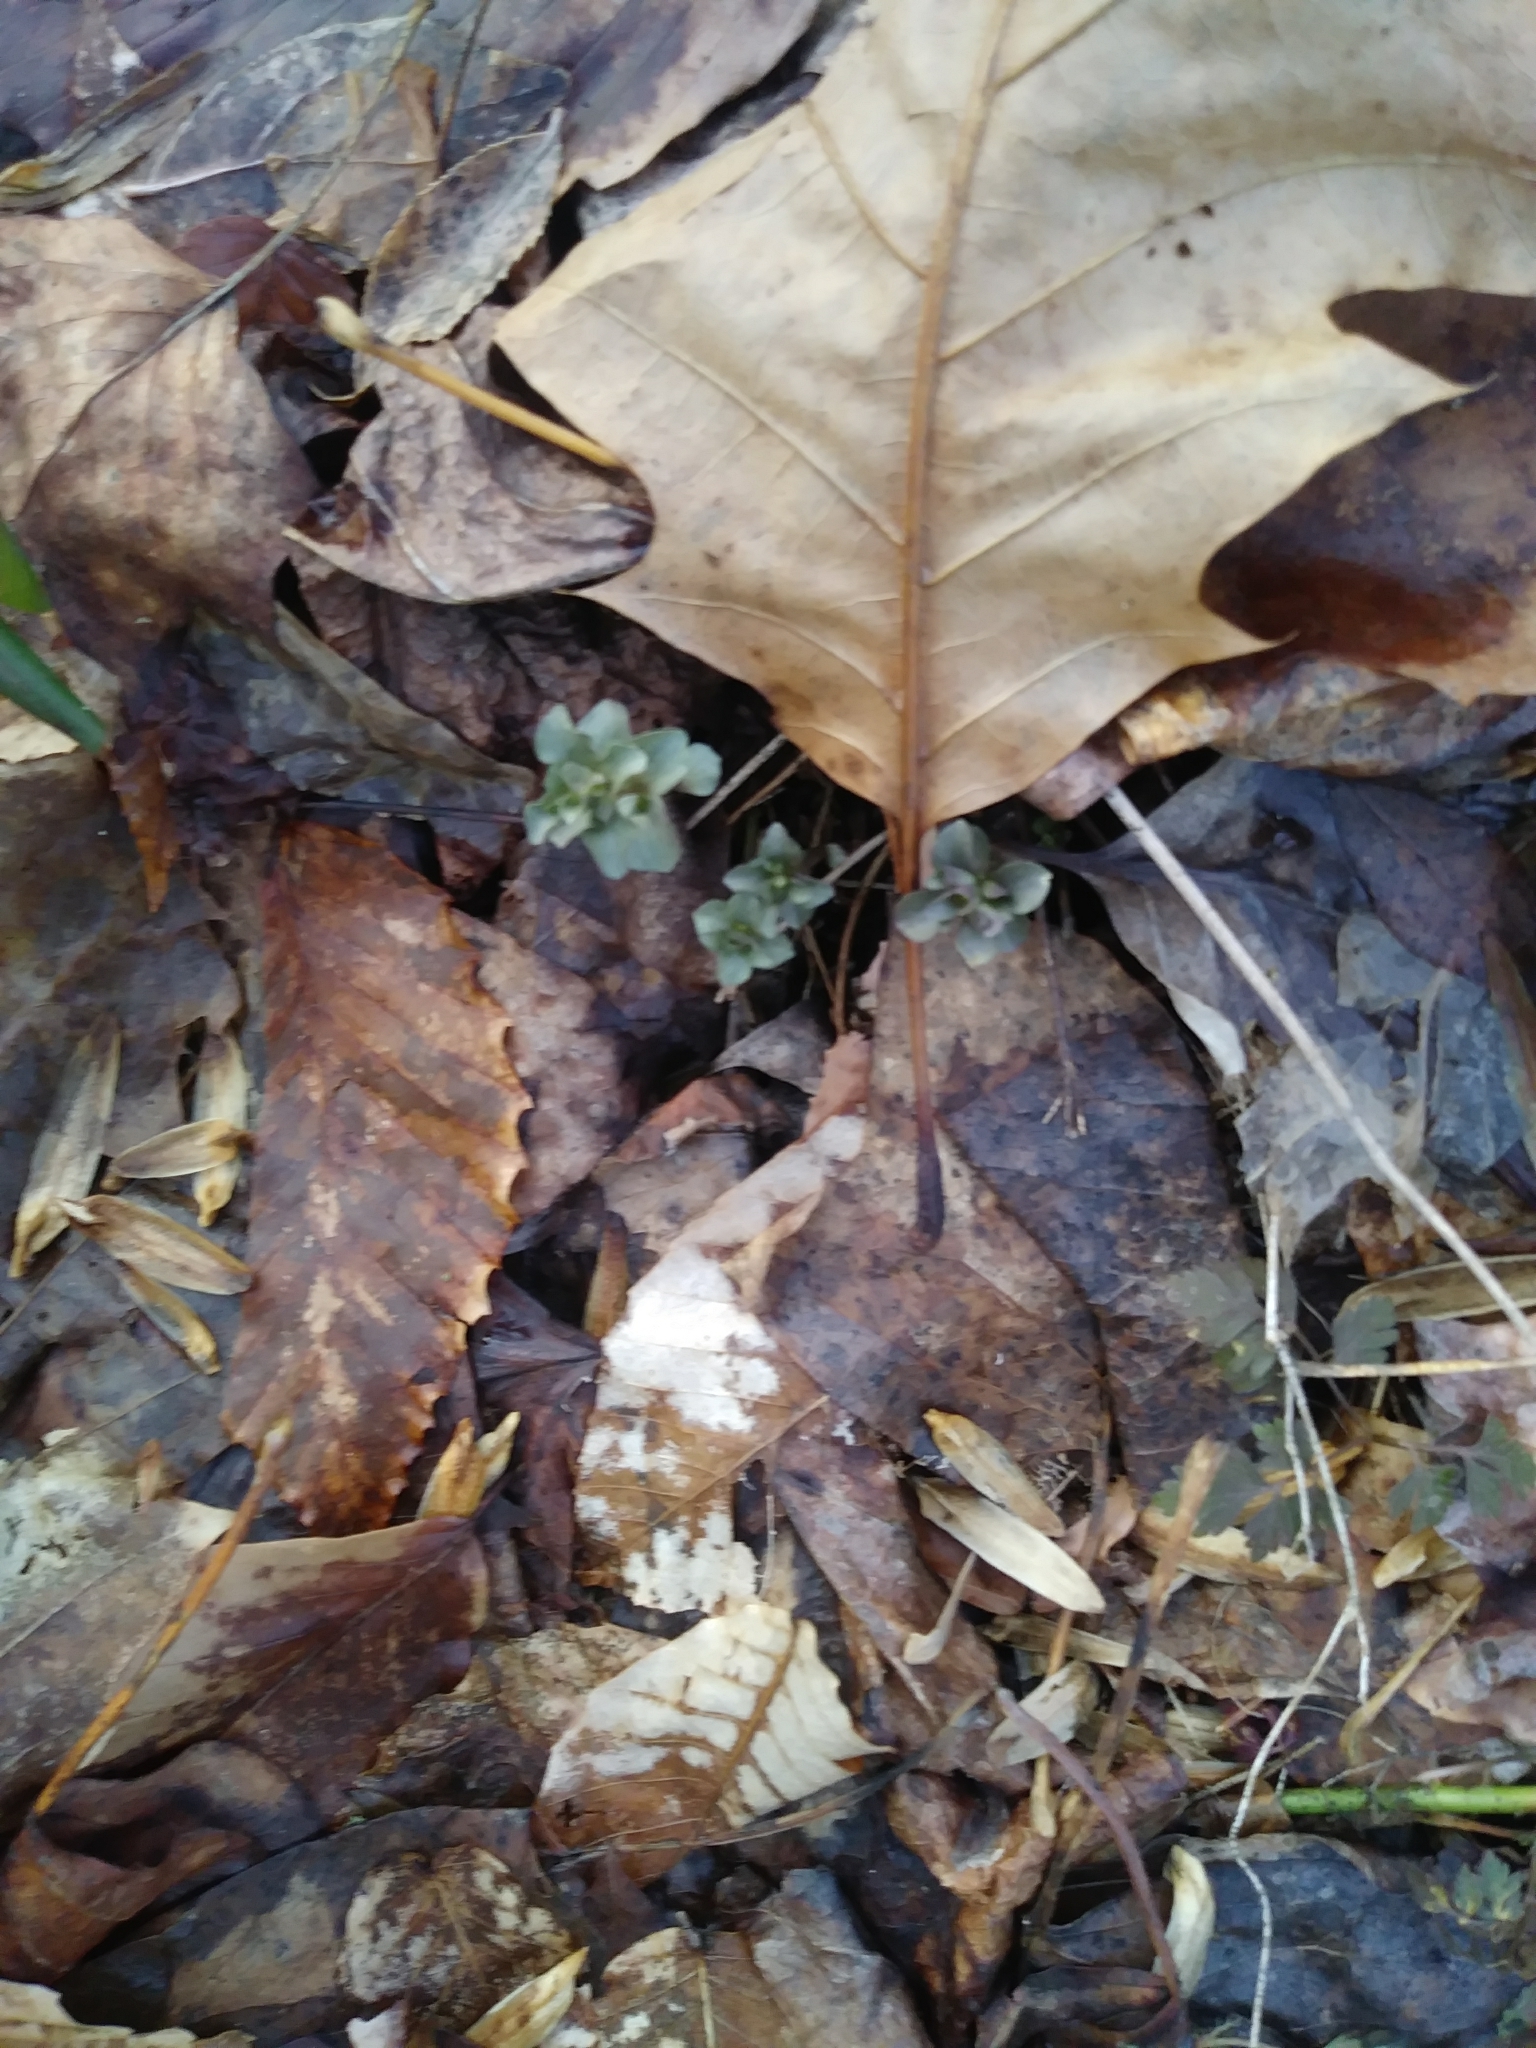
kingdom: Plantae
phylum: Tracheophyta
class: Magnoliopsida
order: Gentianales
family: Gentianaceae
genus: Obolaria
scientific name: Obolaria virginica
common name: Pennywort
